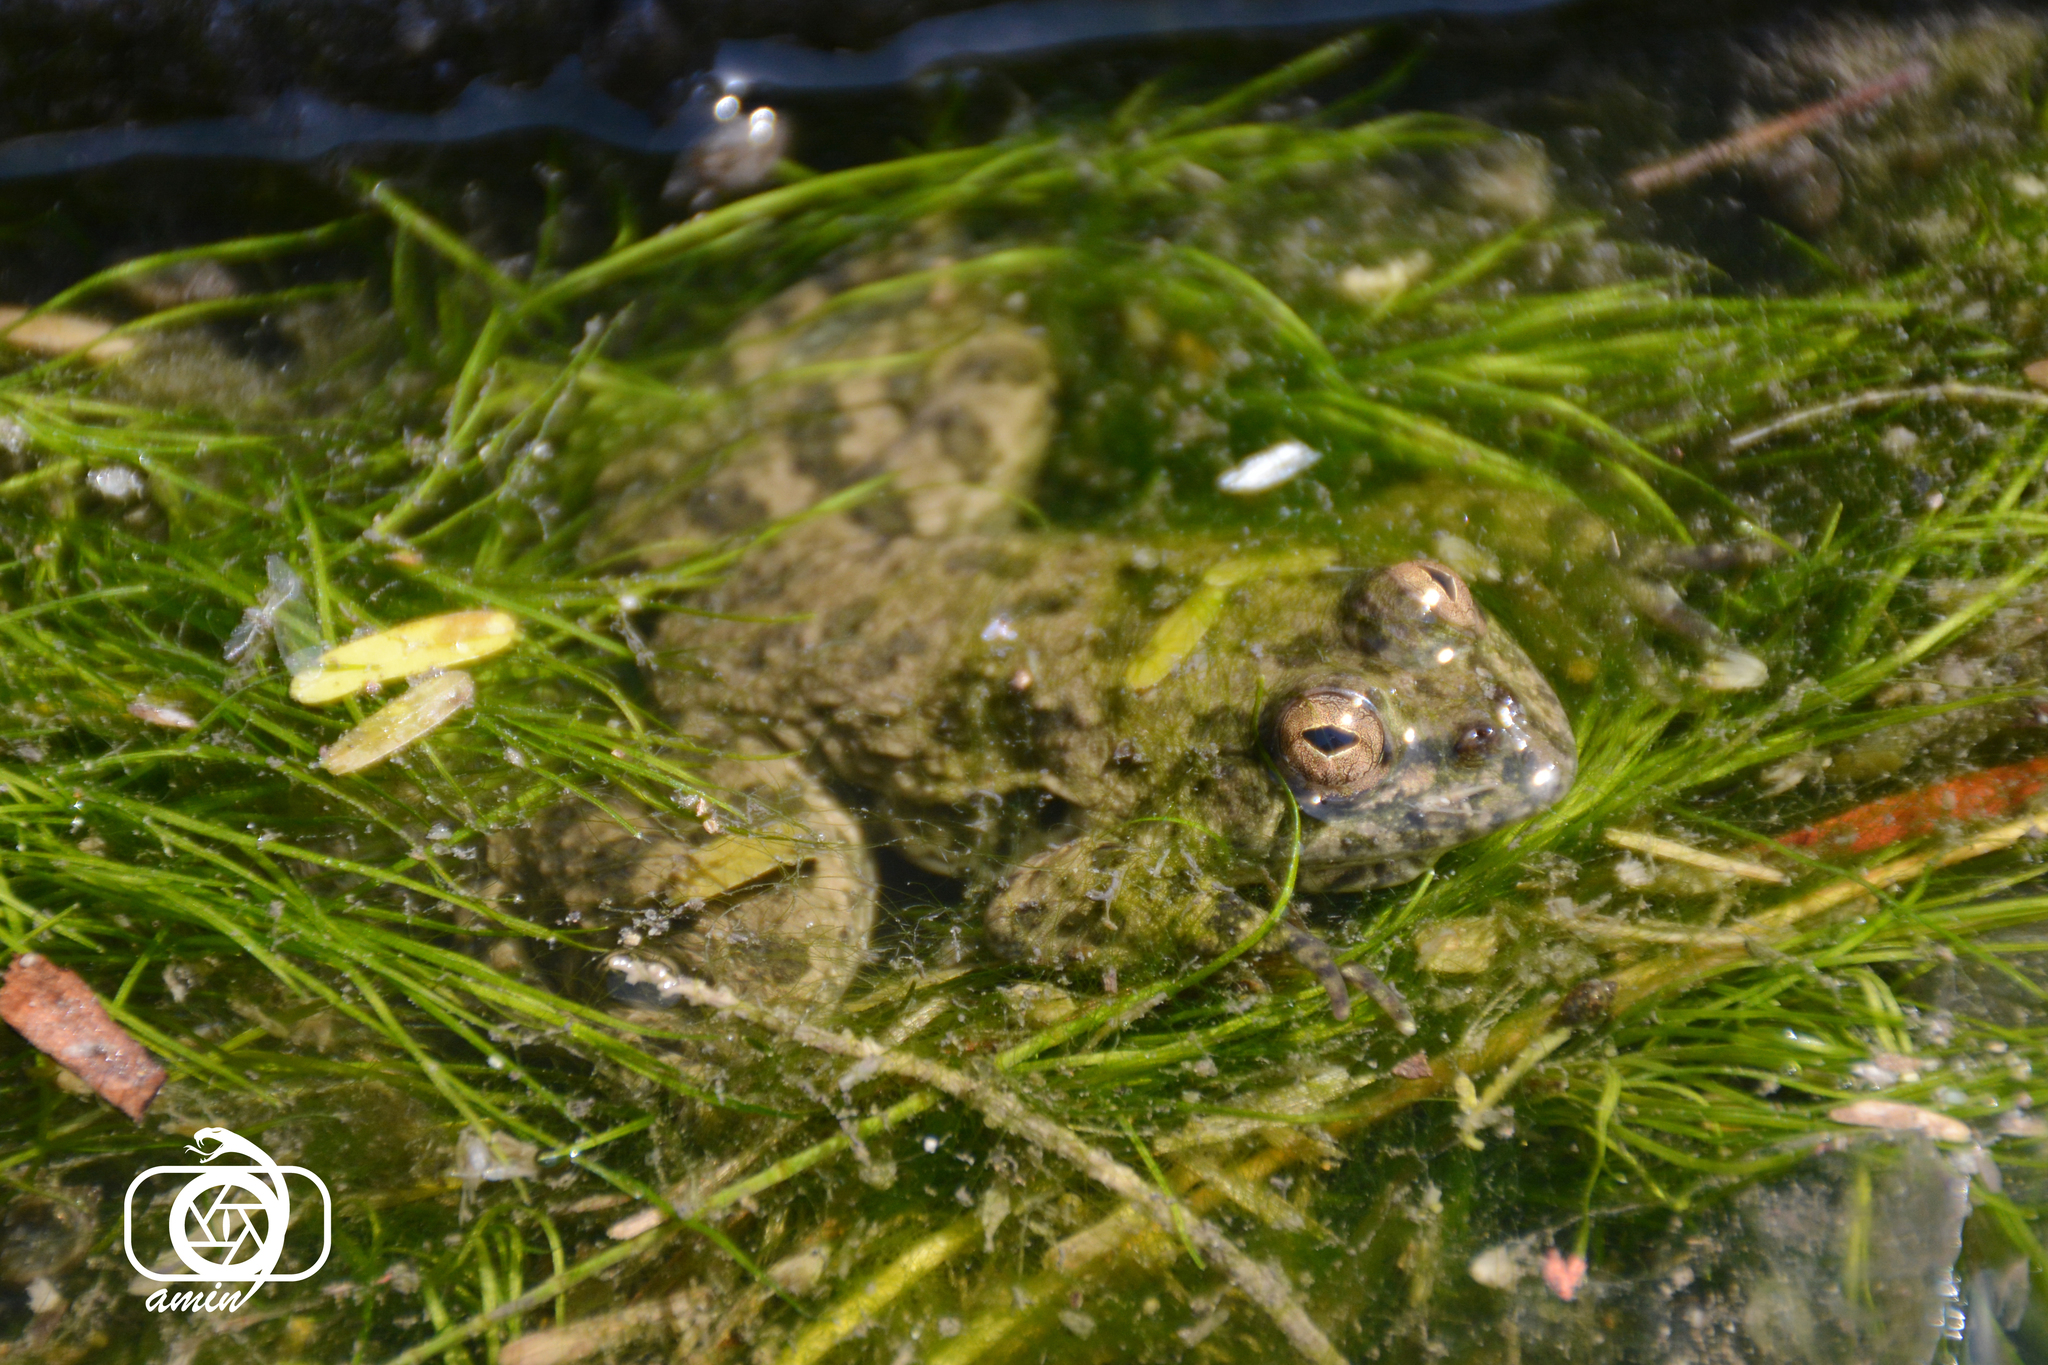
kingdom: Animalia
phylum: Chordata
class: Amphibia
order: Anura
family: Dicroglossidae
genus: Euphlyctis
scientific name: Euphlyctis cyanophlyctis
